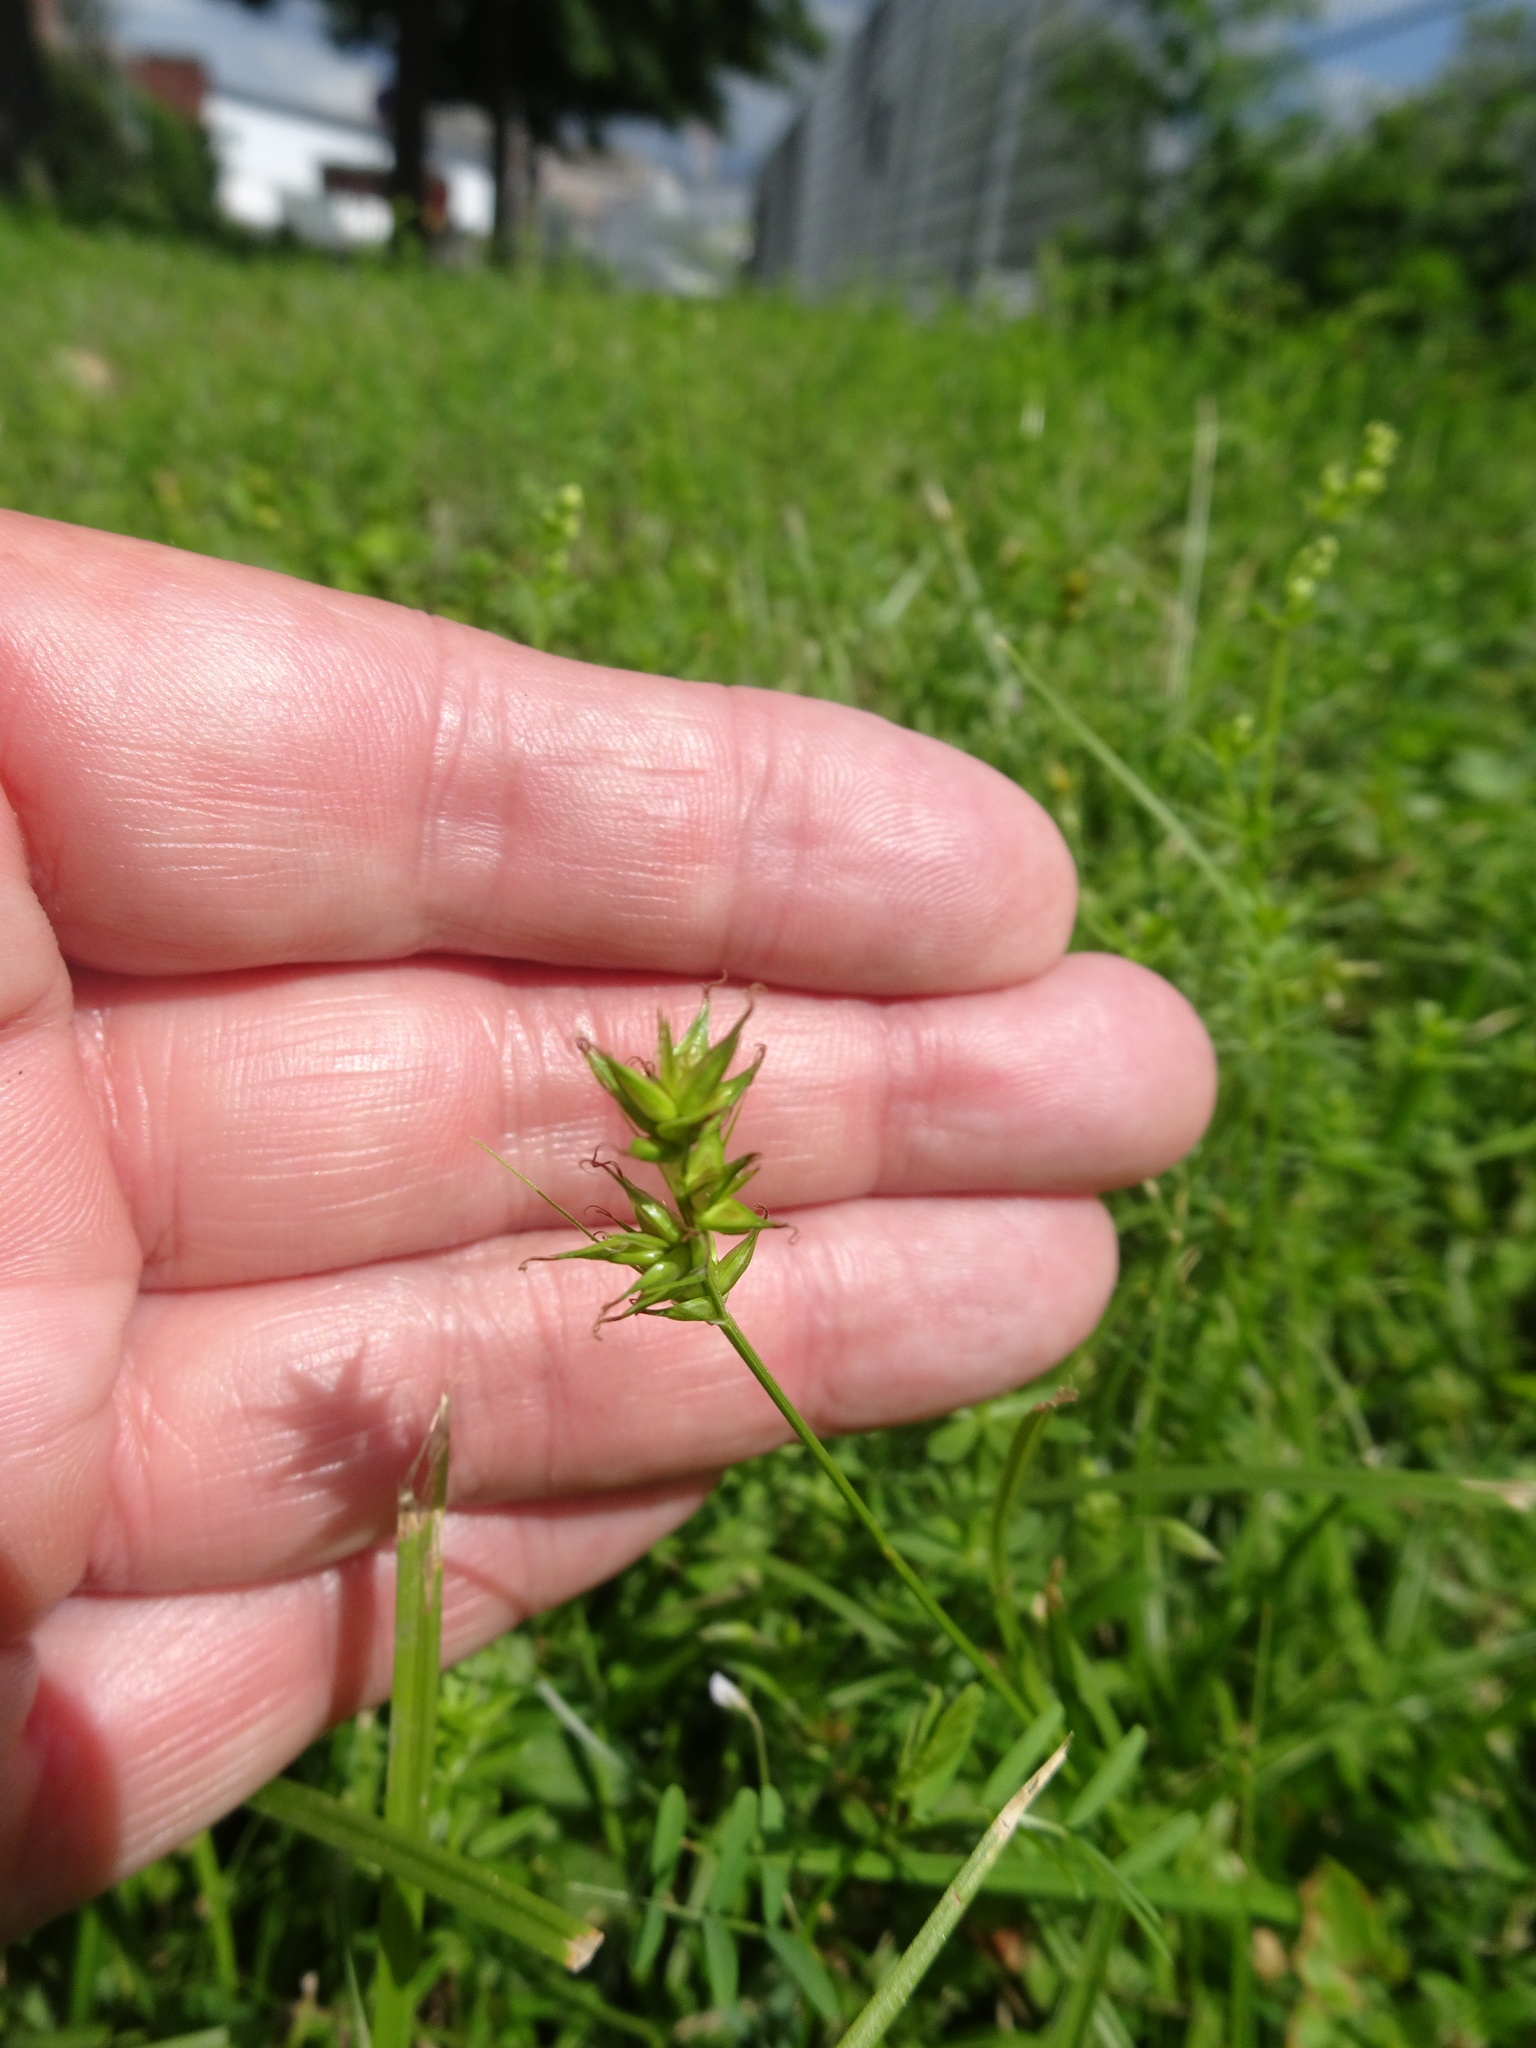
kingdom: Plantae
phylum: Tracheophyta
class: Liliopsida
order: Poales
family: Cyperaceae
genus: Carex
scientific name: Carex spicata
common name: Spiked sedge
